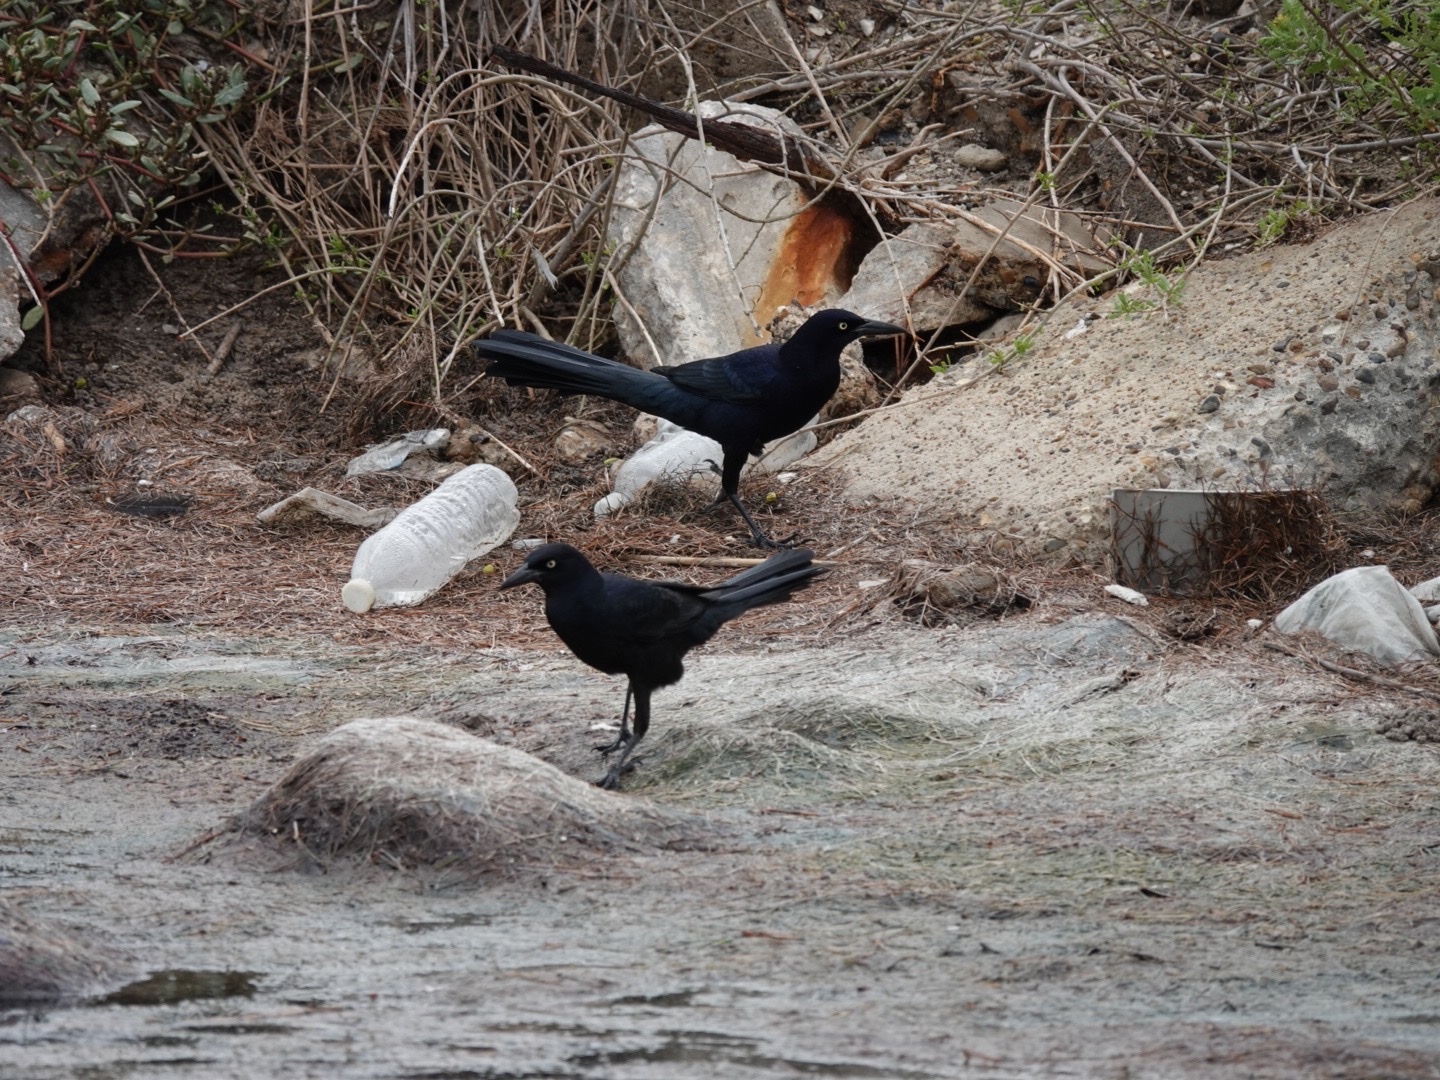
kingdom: Animalia
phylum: Chordata
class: Aves
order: Passeriformes
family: Icteridae
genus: Quiscalus
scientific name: Quiscalus mexicanus
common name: Great-tailed grackle
